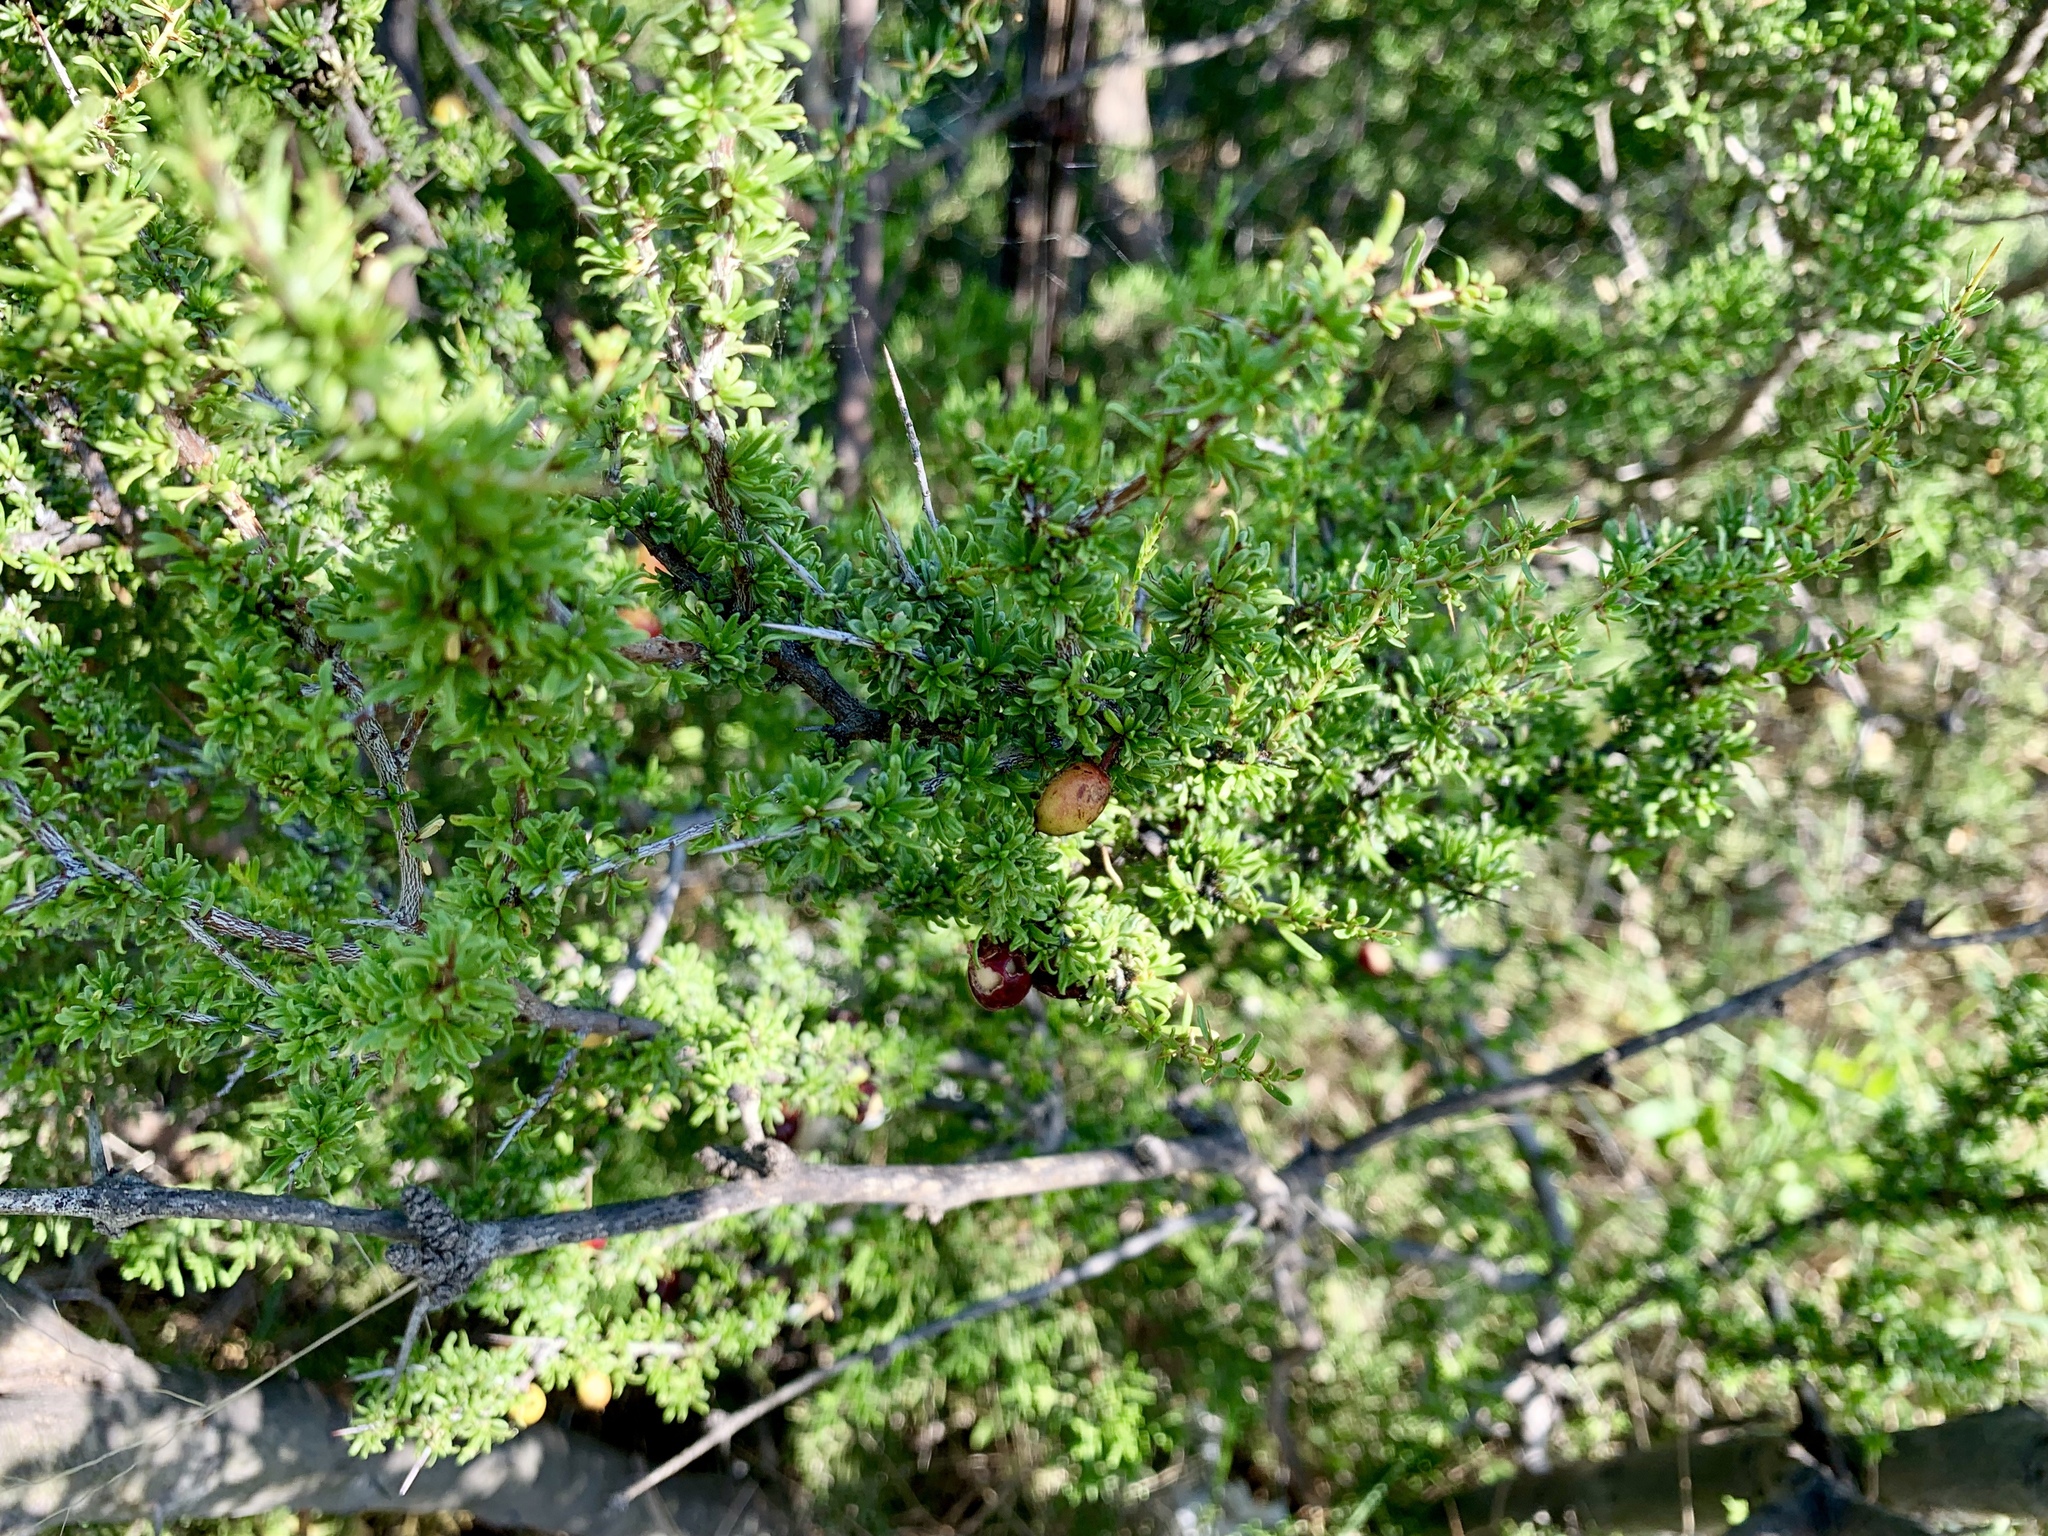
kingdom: Plantae
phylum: Tracheophyta
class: Magnoliopsida
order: Rosales
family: Rhamnaceae
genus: Condalia
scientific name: Condalia ericoides
